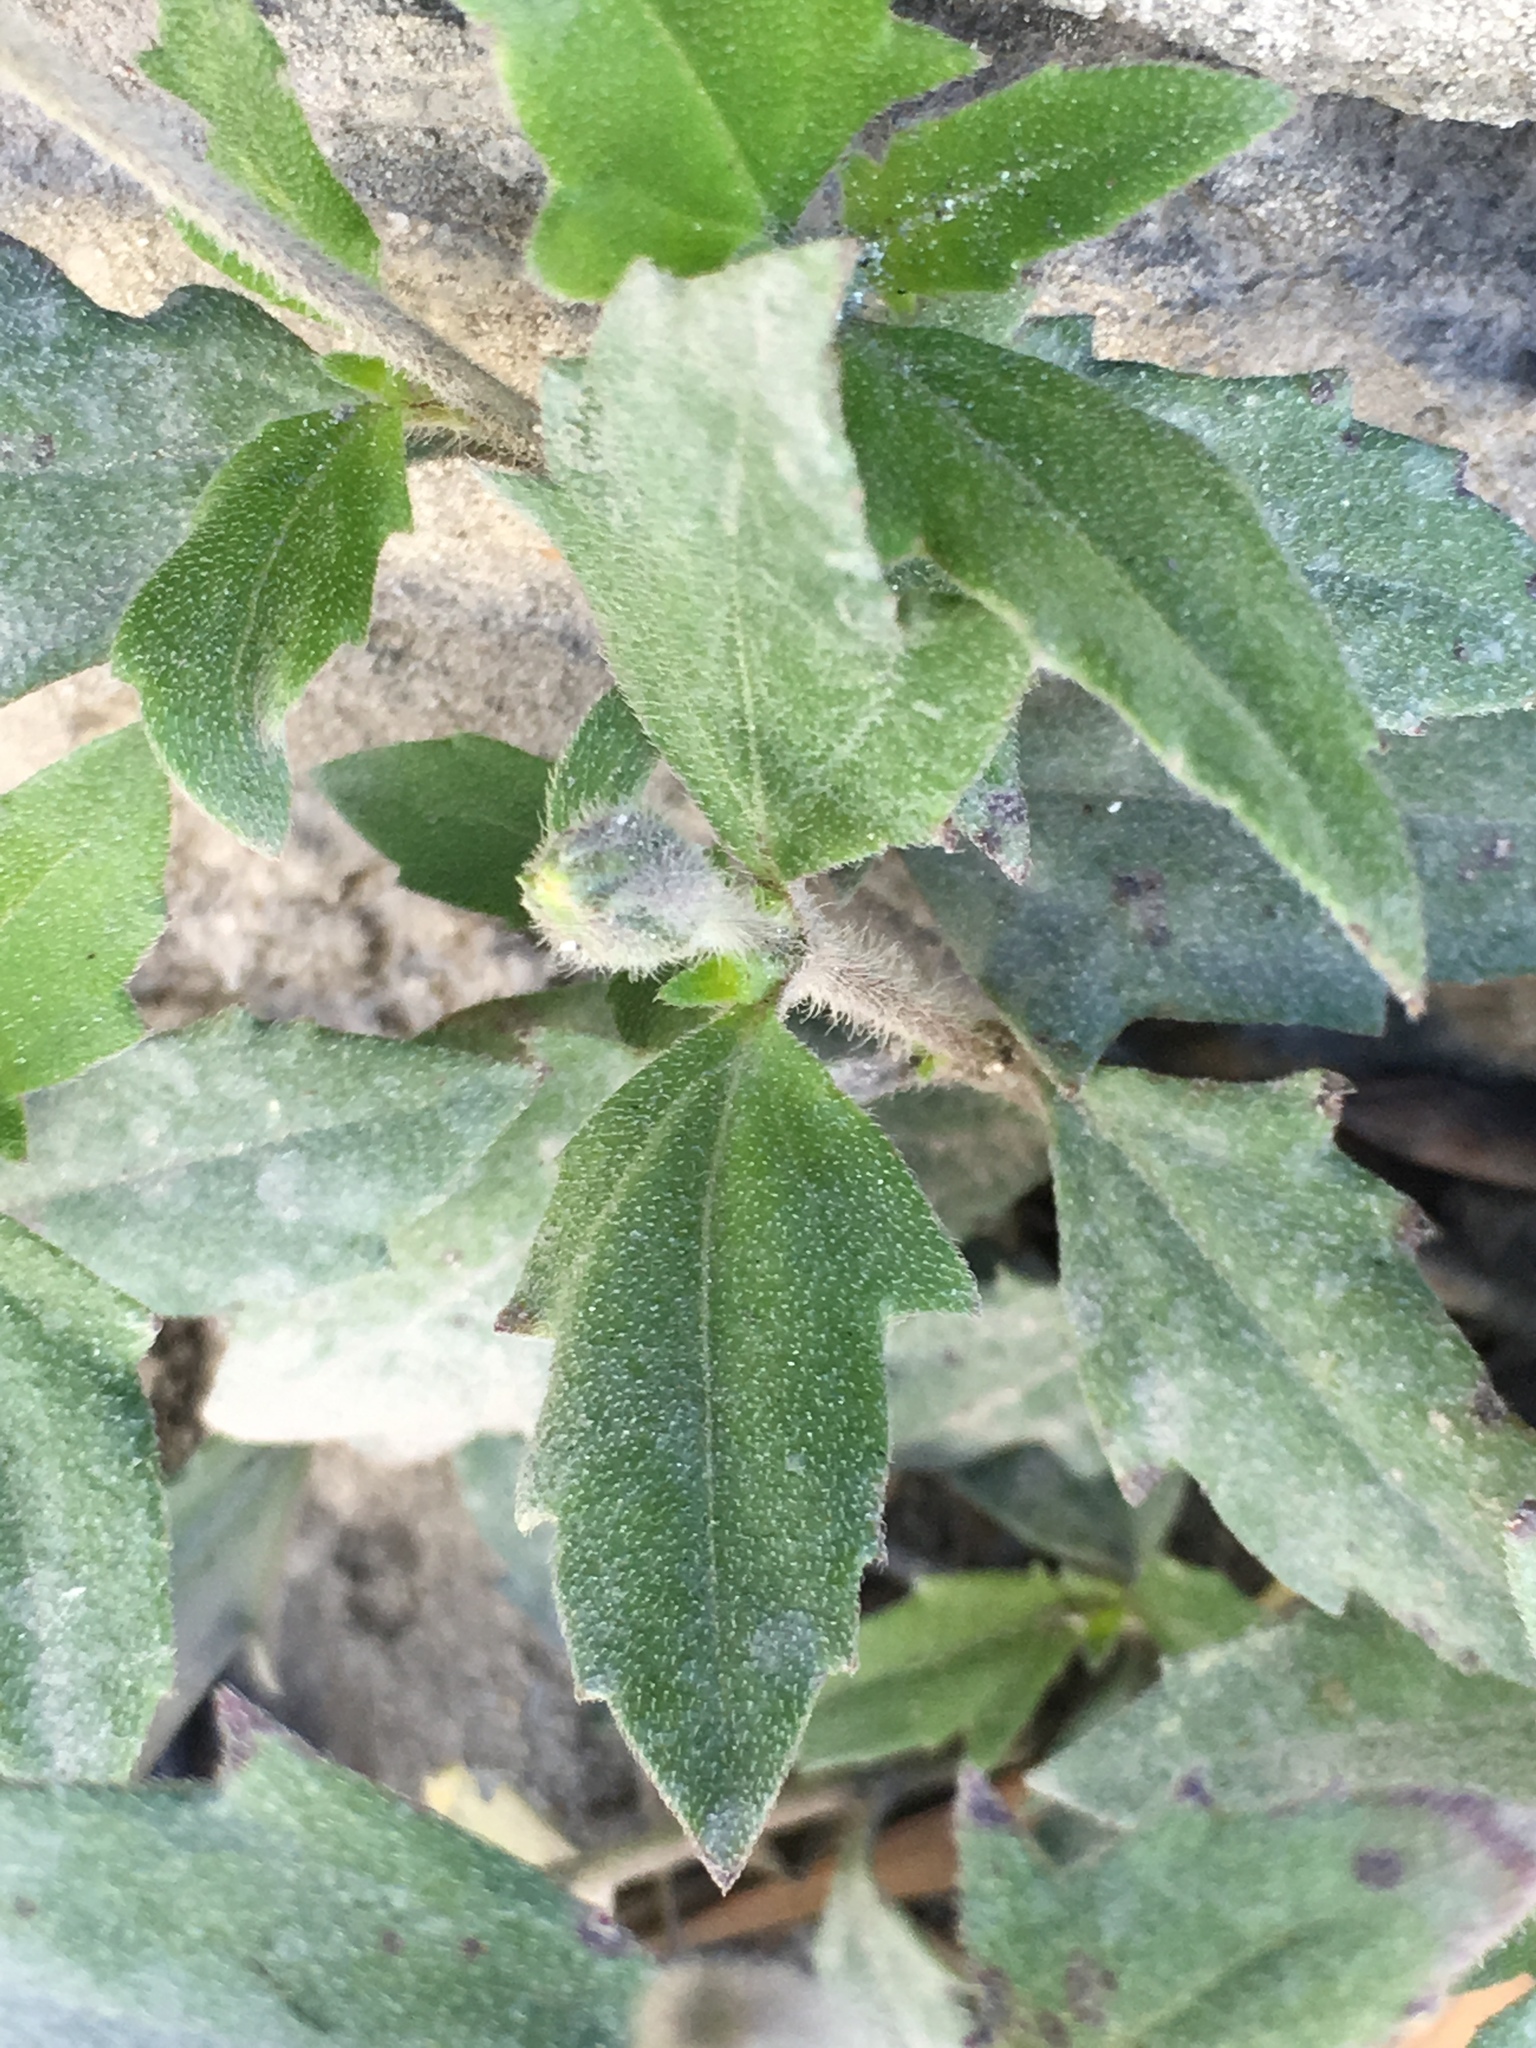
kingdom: Plantae
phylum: Tracheophyta
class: Magnoliopsida
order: Asterales
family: Asteraceae
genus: Tridax
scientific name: Tridax procumbens
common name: Coatbuttons
